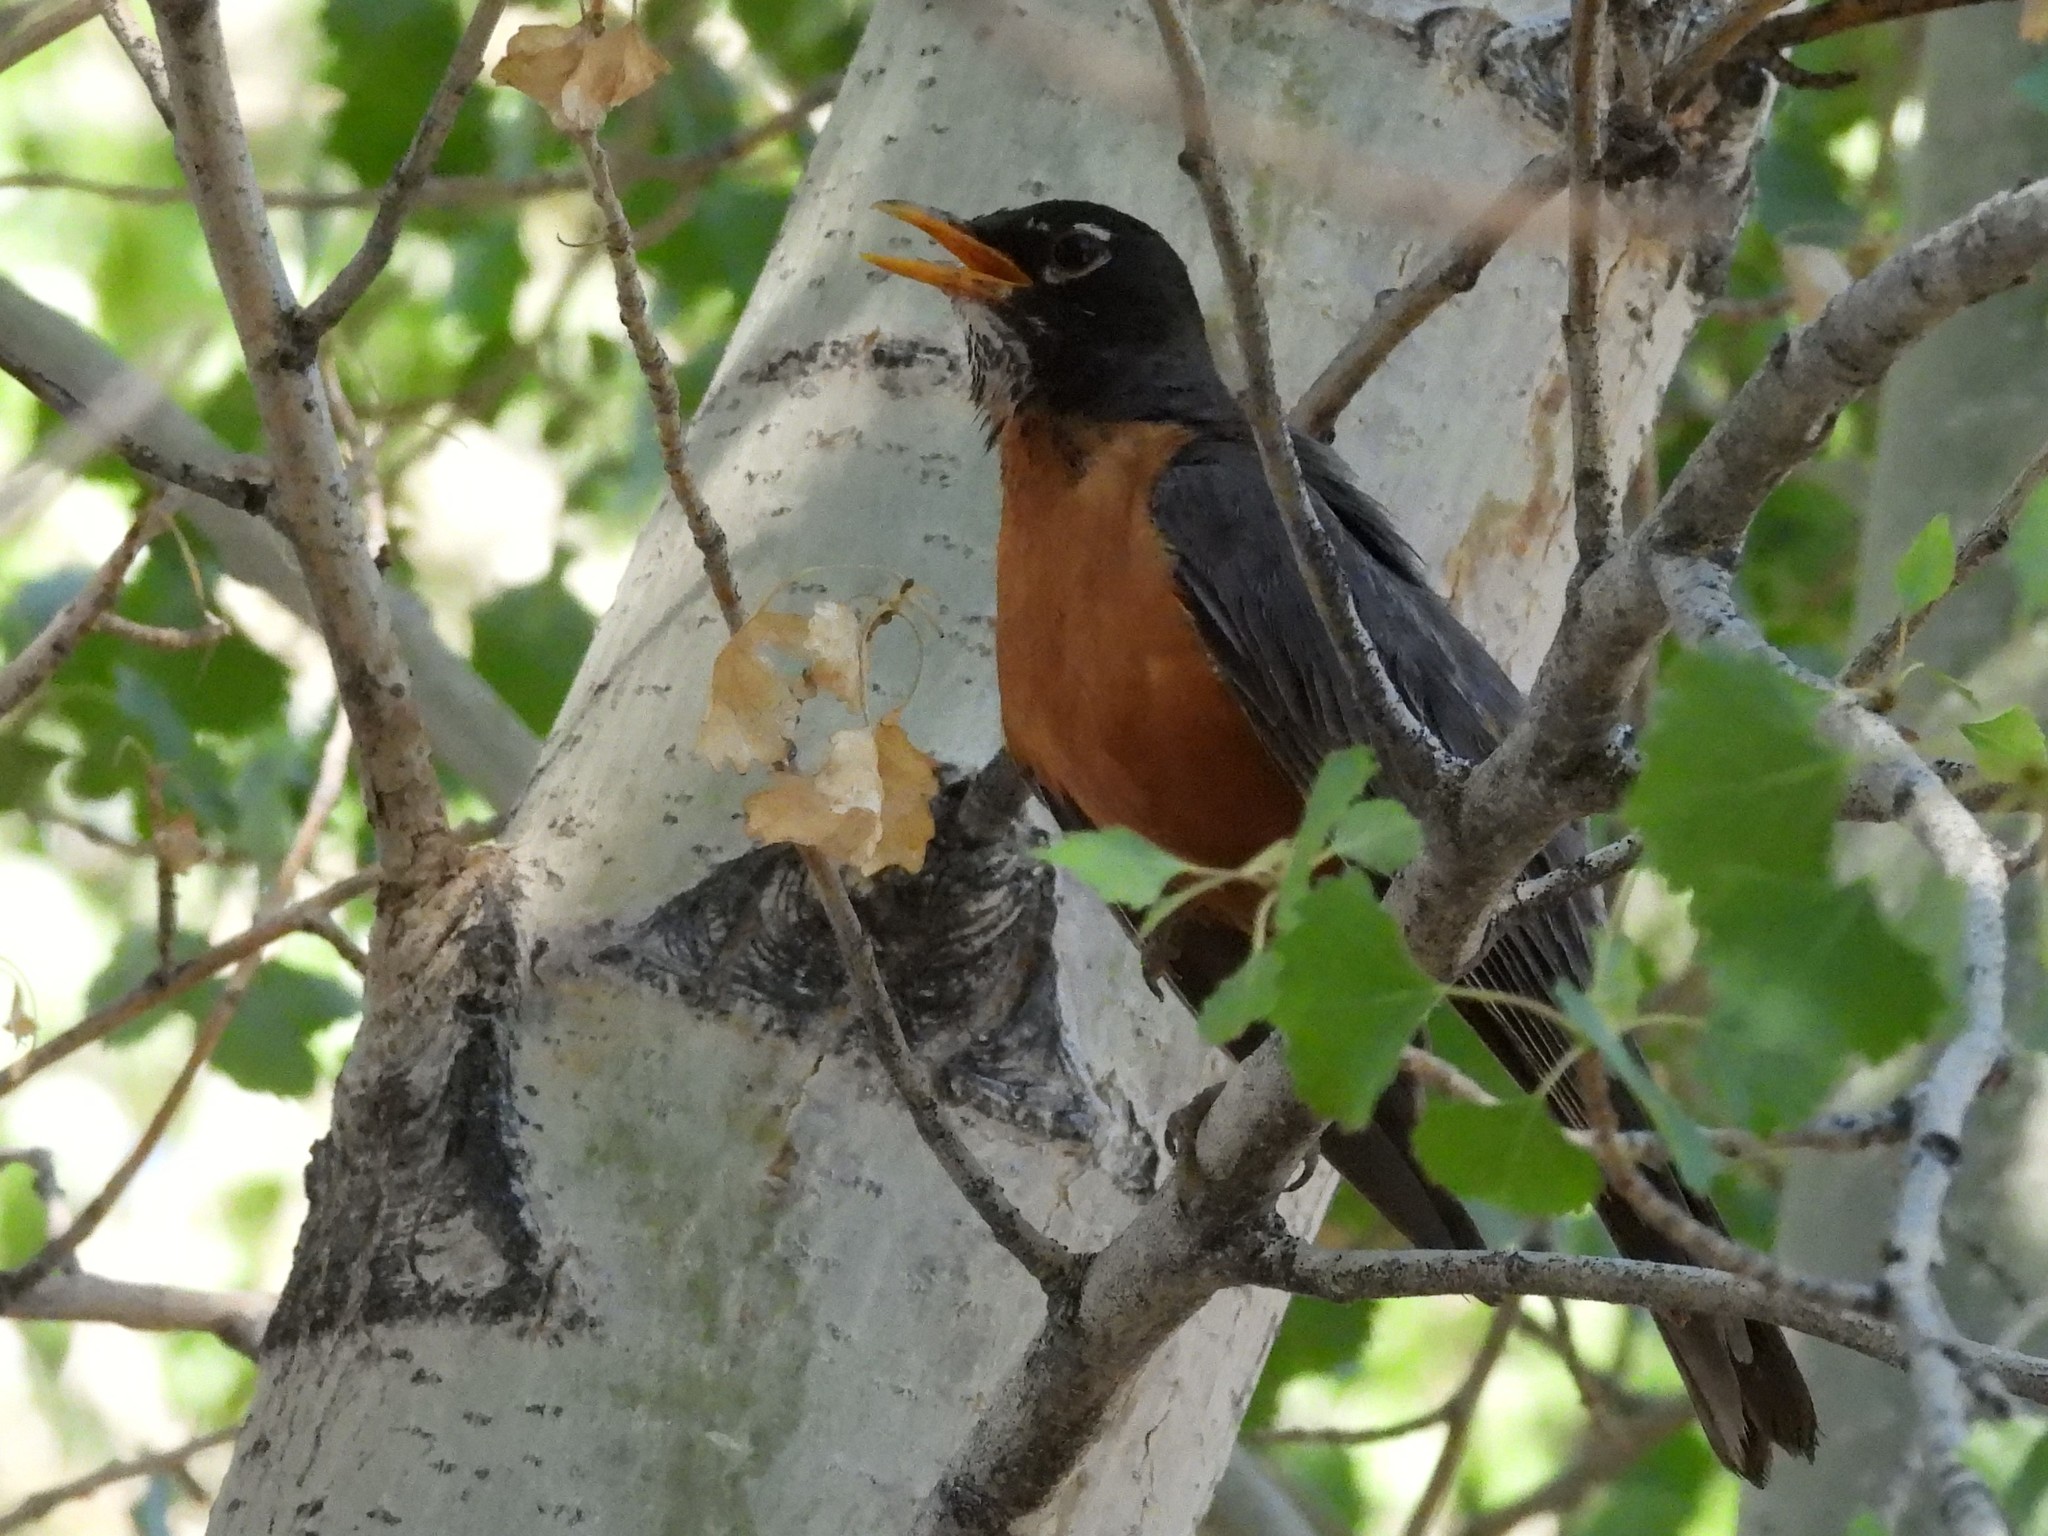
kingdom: Animalia
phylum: Chordata
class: Aves
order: Passeriformes
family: Turdidae
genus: Turdus
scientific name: Turdus migratorius
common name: American robin
